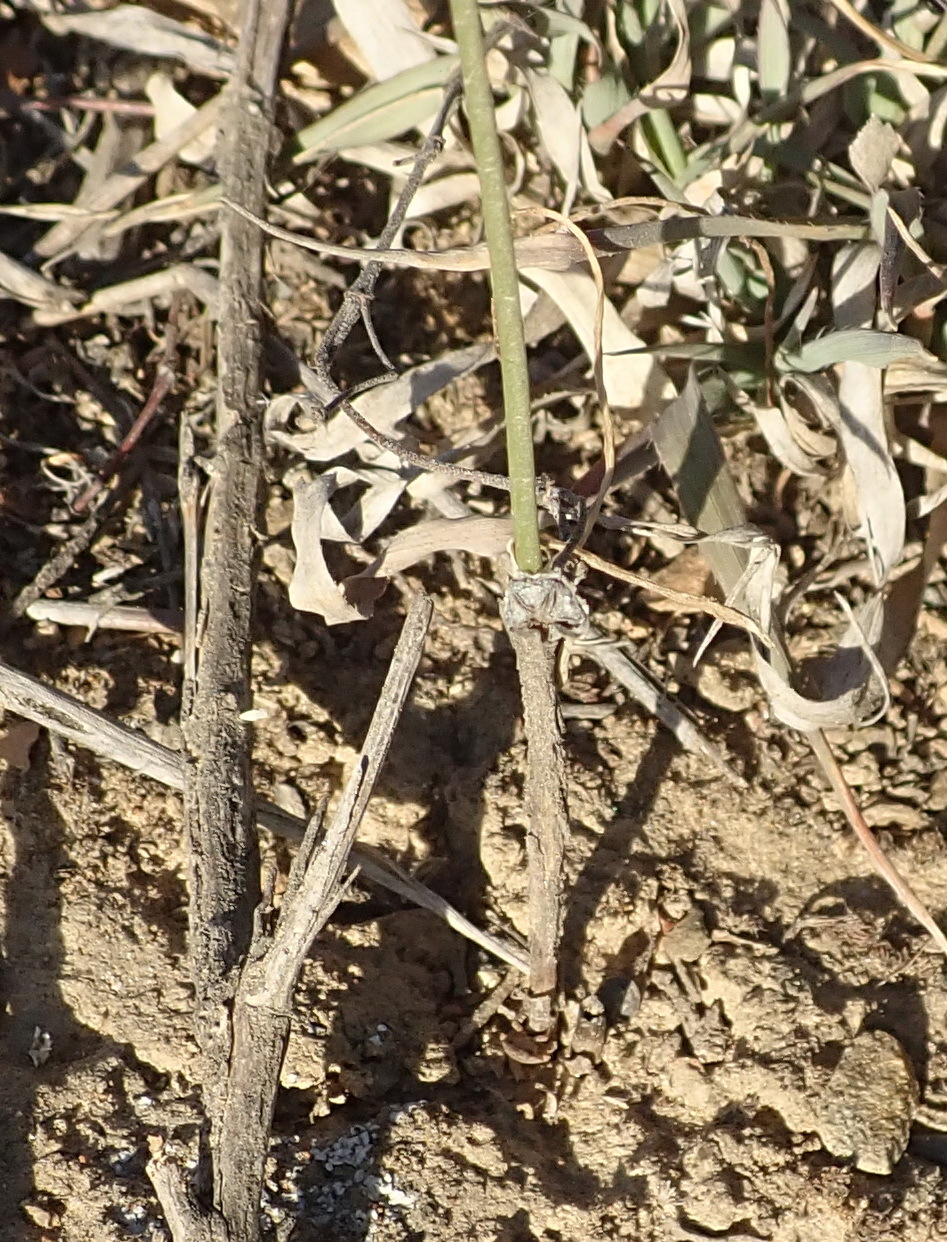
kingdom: Plantae
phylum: Tracheophyta
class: Liliopsida
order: Asparagales
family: Asparagaceae
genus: Ornithogalum
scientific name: Ornithogalum graminifolium
